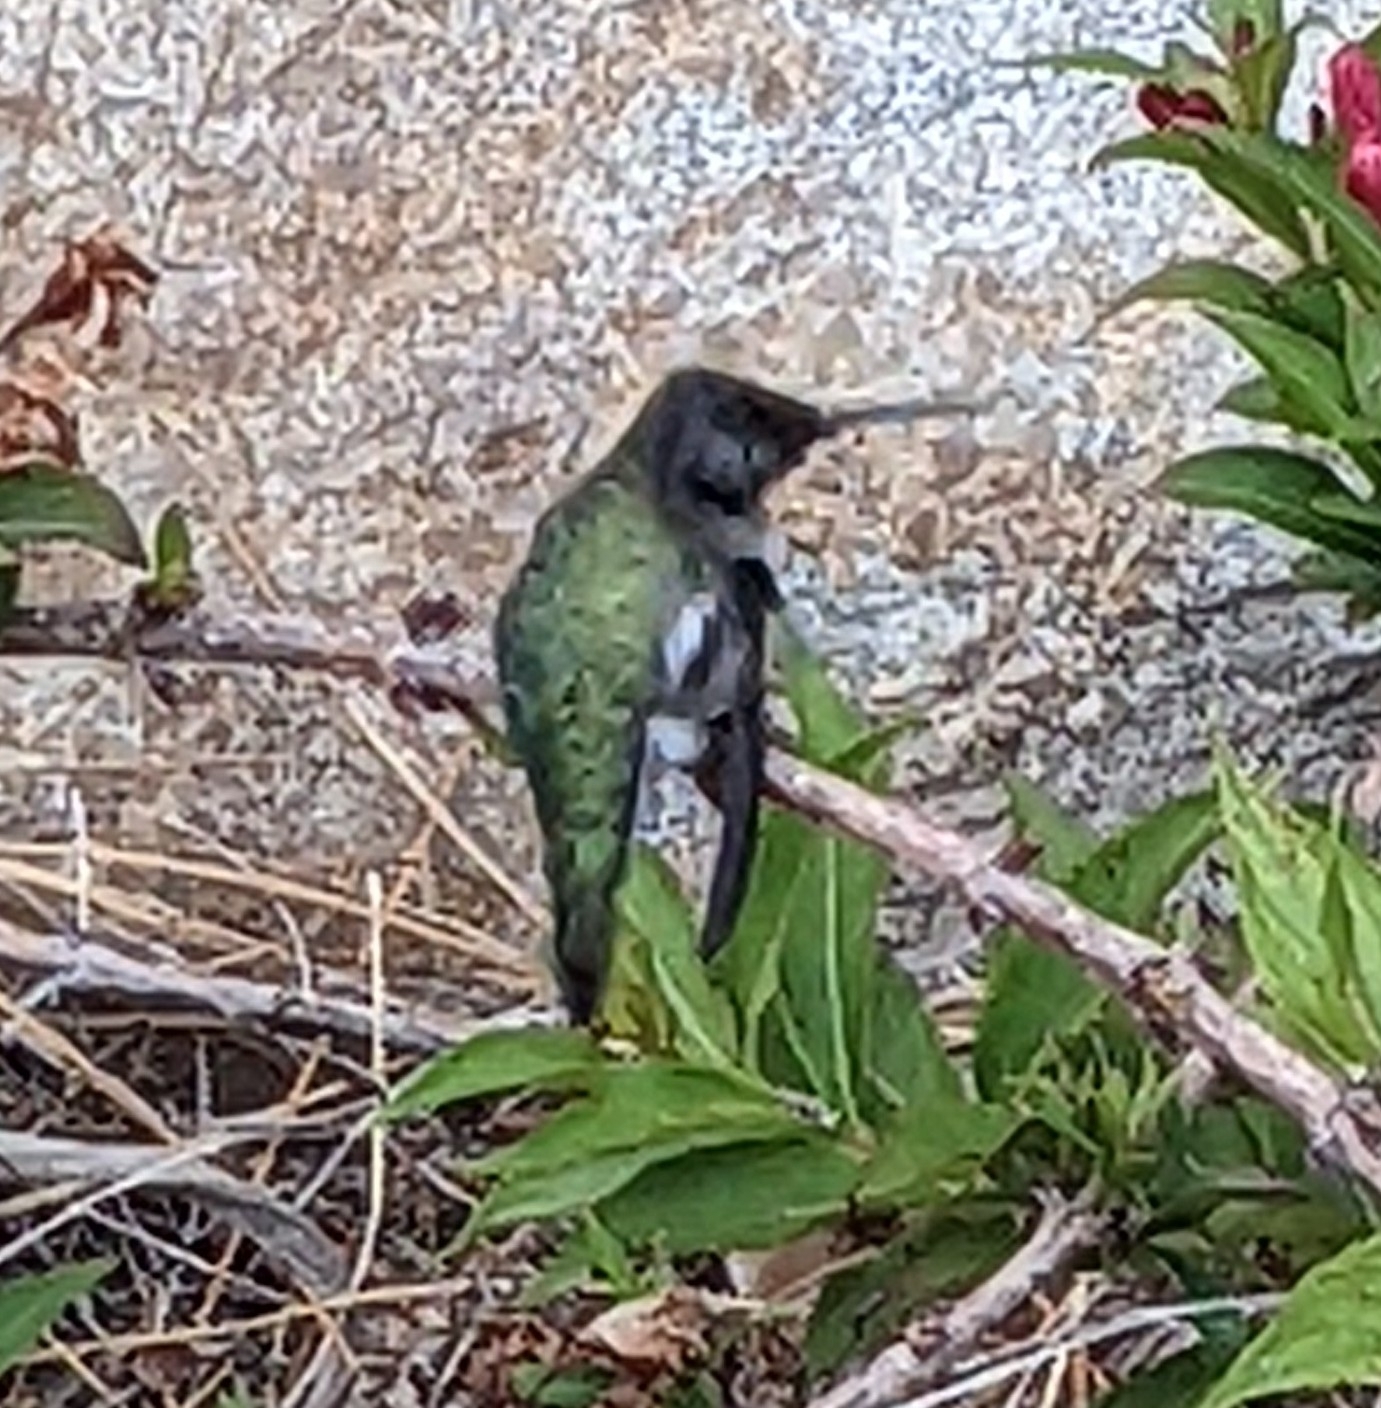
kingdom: Animalia
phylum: Chordata
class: Aves
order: Apodiformes
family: Trochilidae
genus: Calypte
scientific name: Calypte anna
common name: Anna's hummingbird
